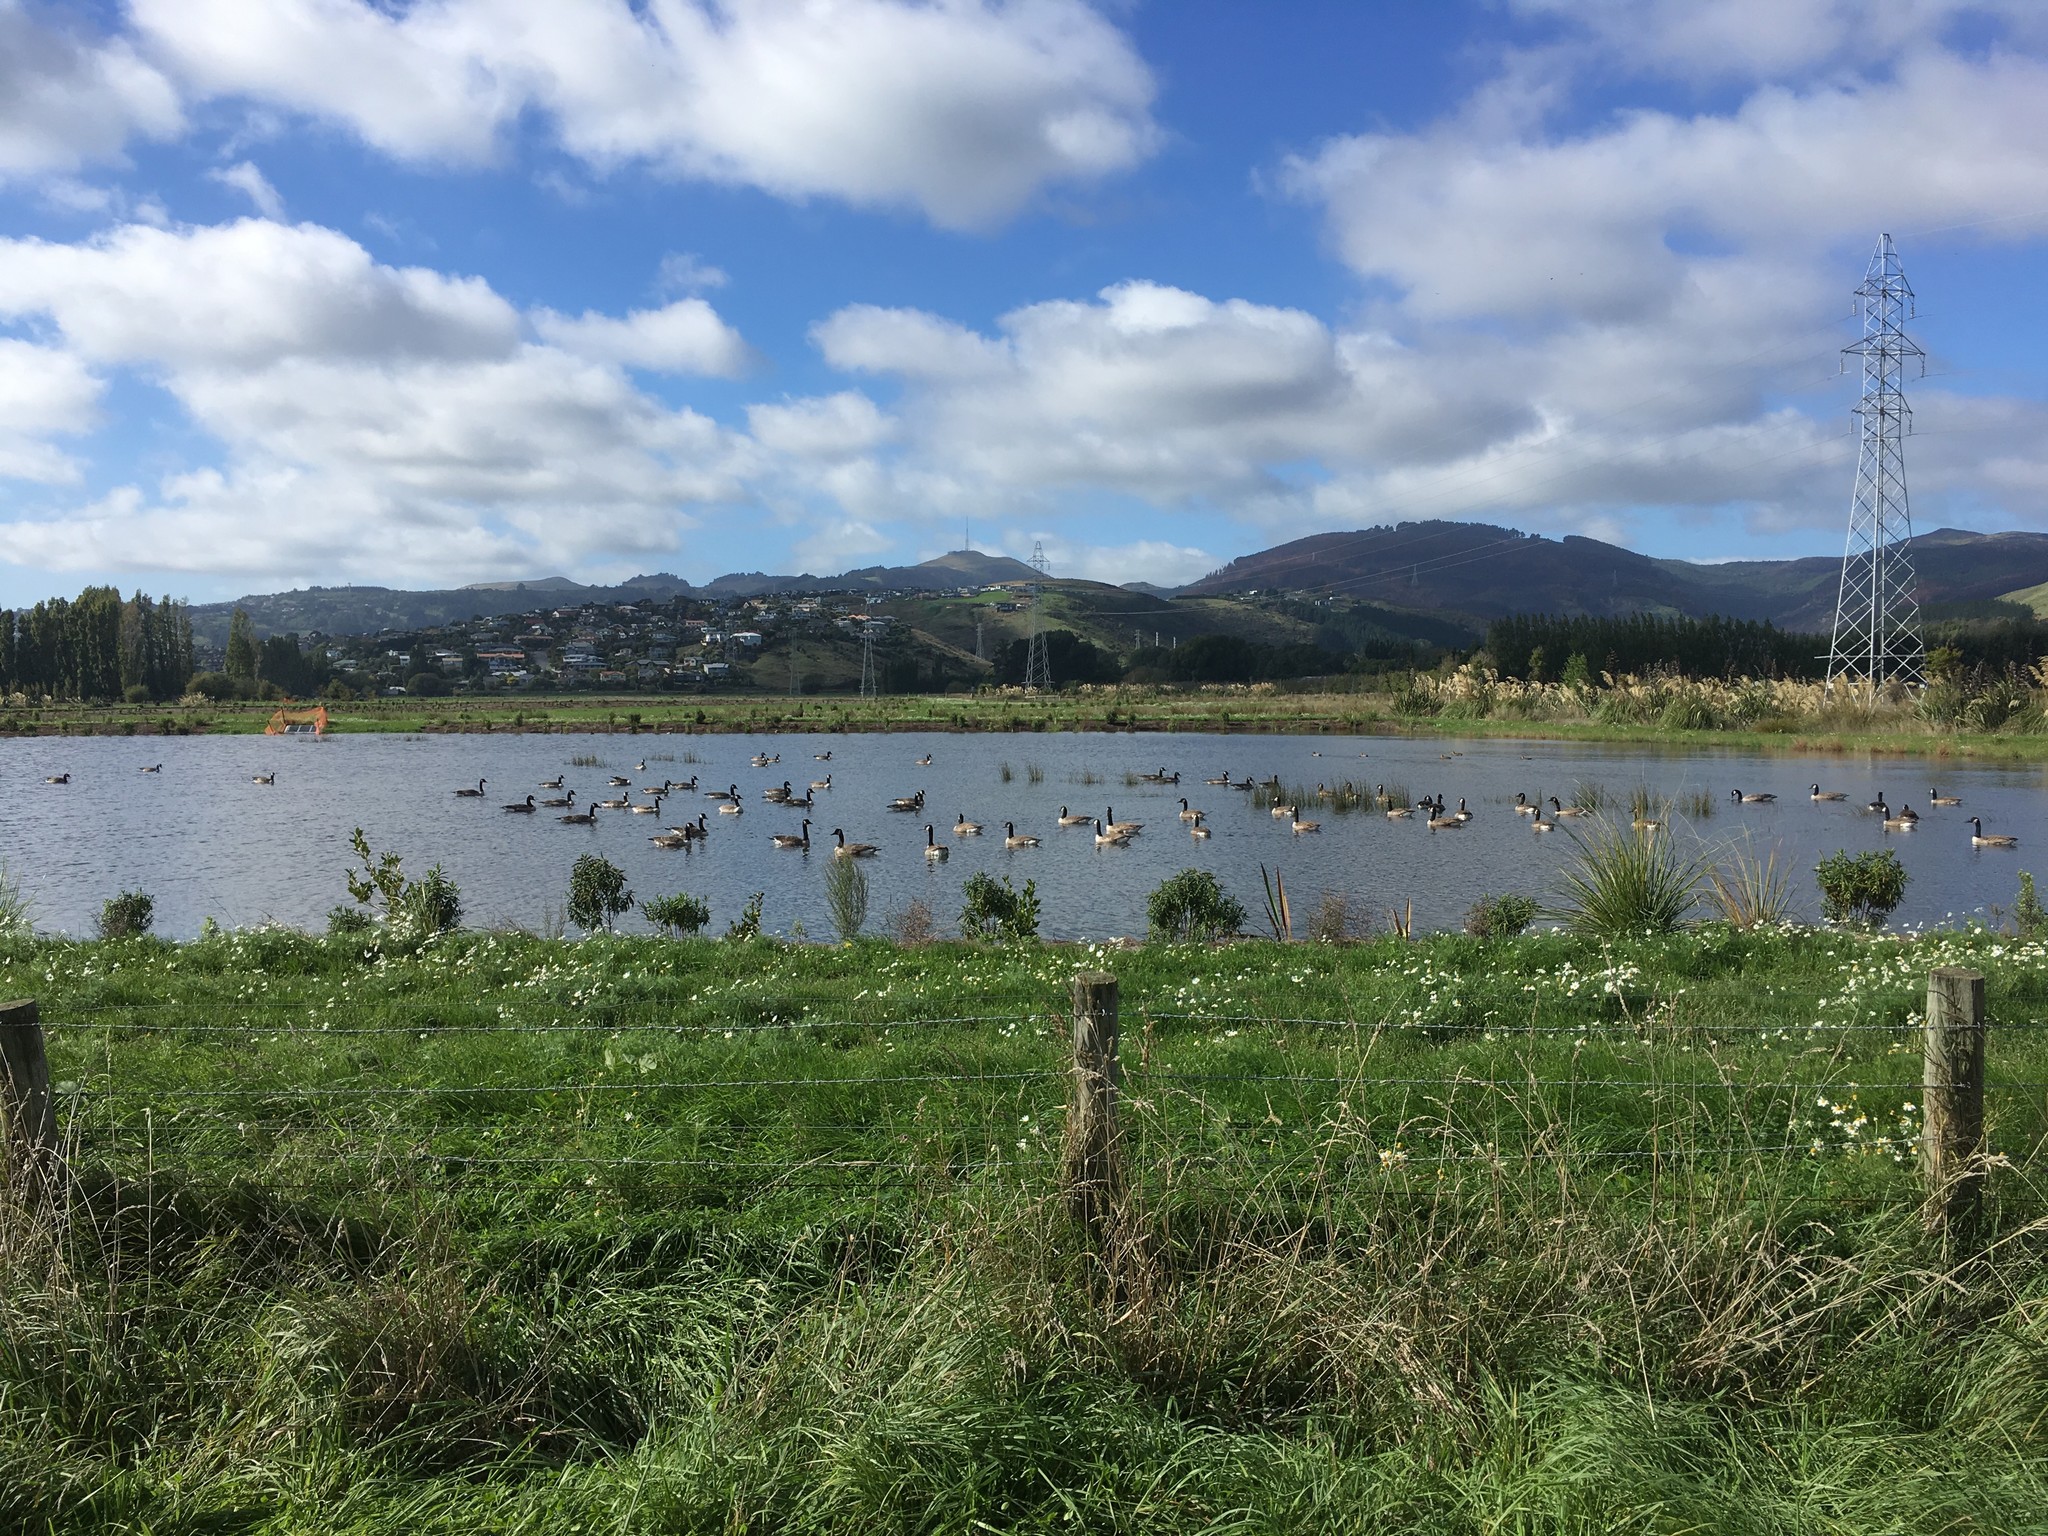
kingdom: Animalia
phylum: Chordata
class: Aves
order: Anseriformes
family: Anatidae
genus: Branta
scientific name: Branta canadensis
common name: Canada goose
